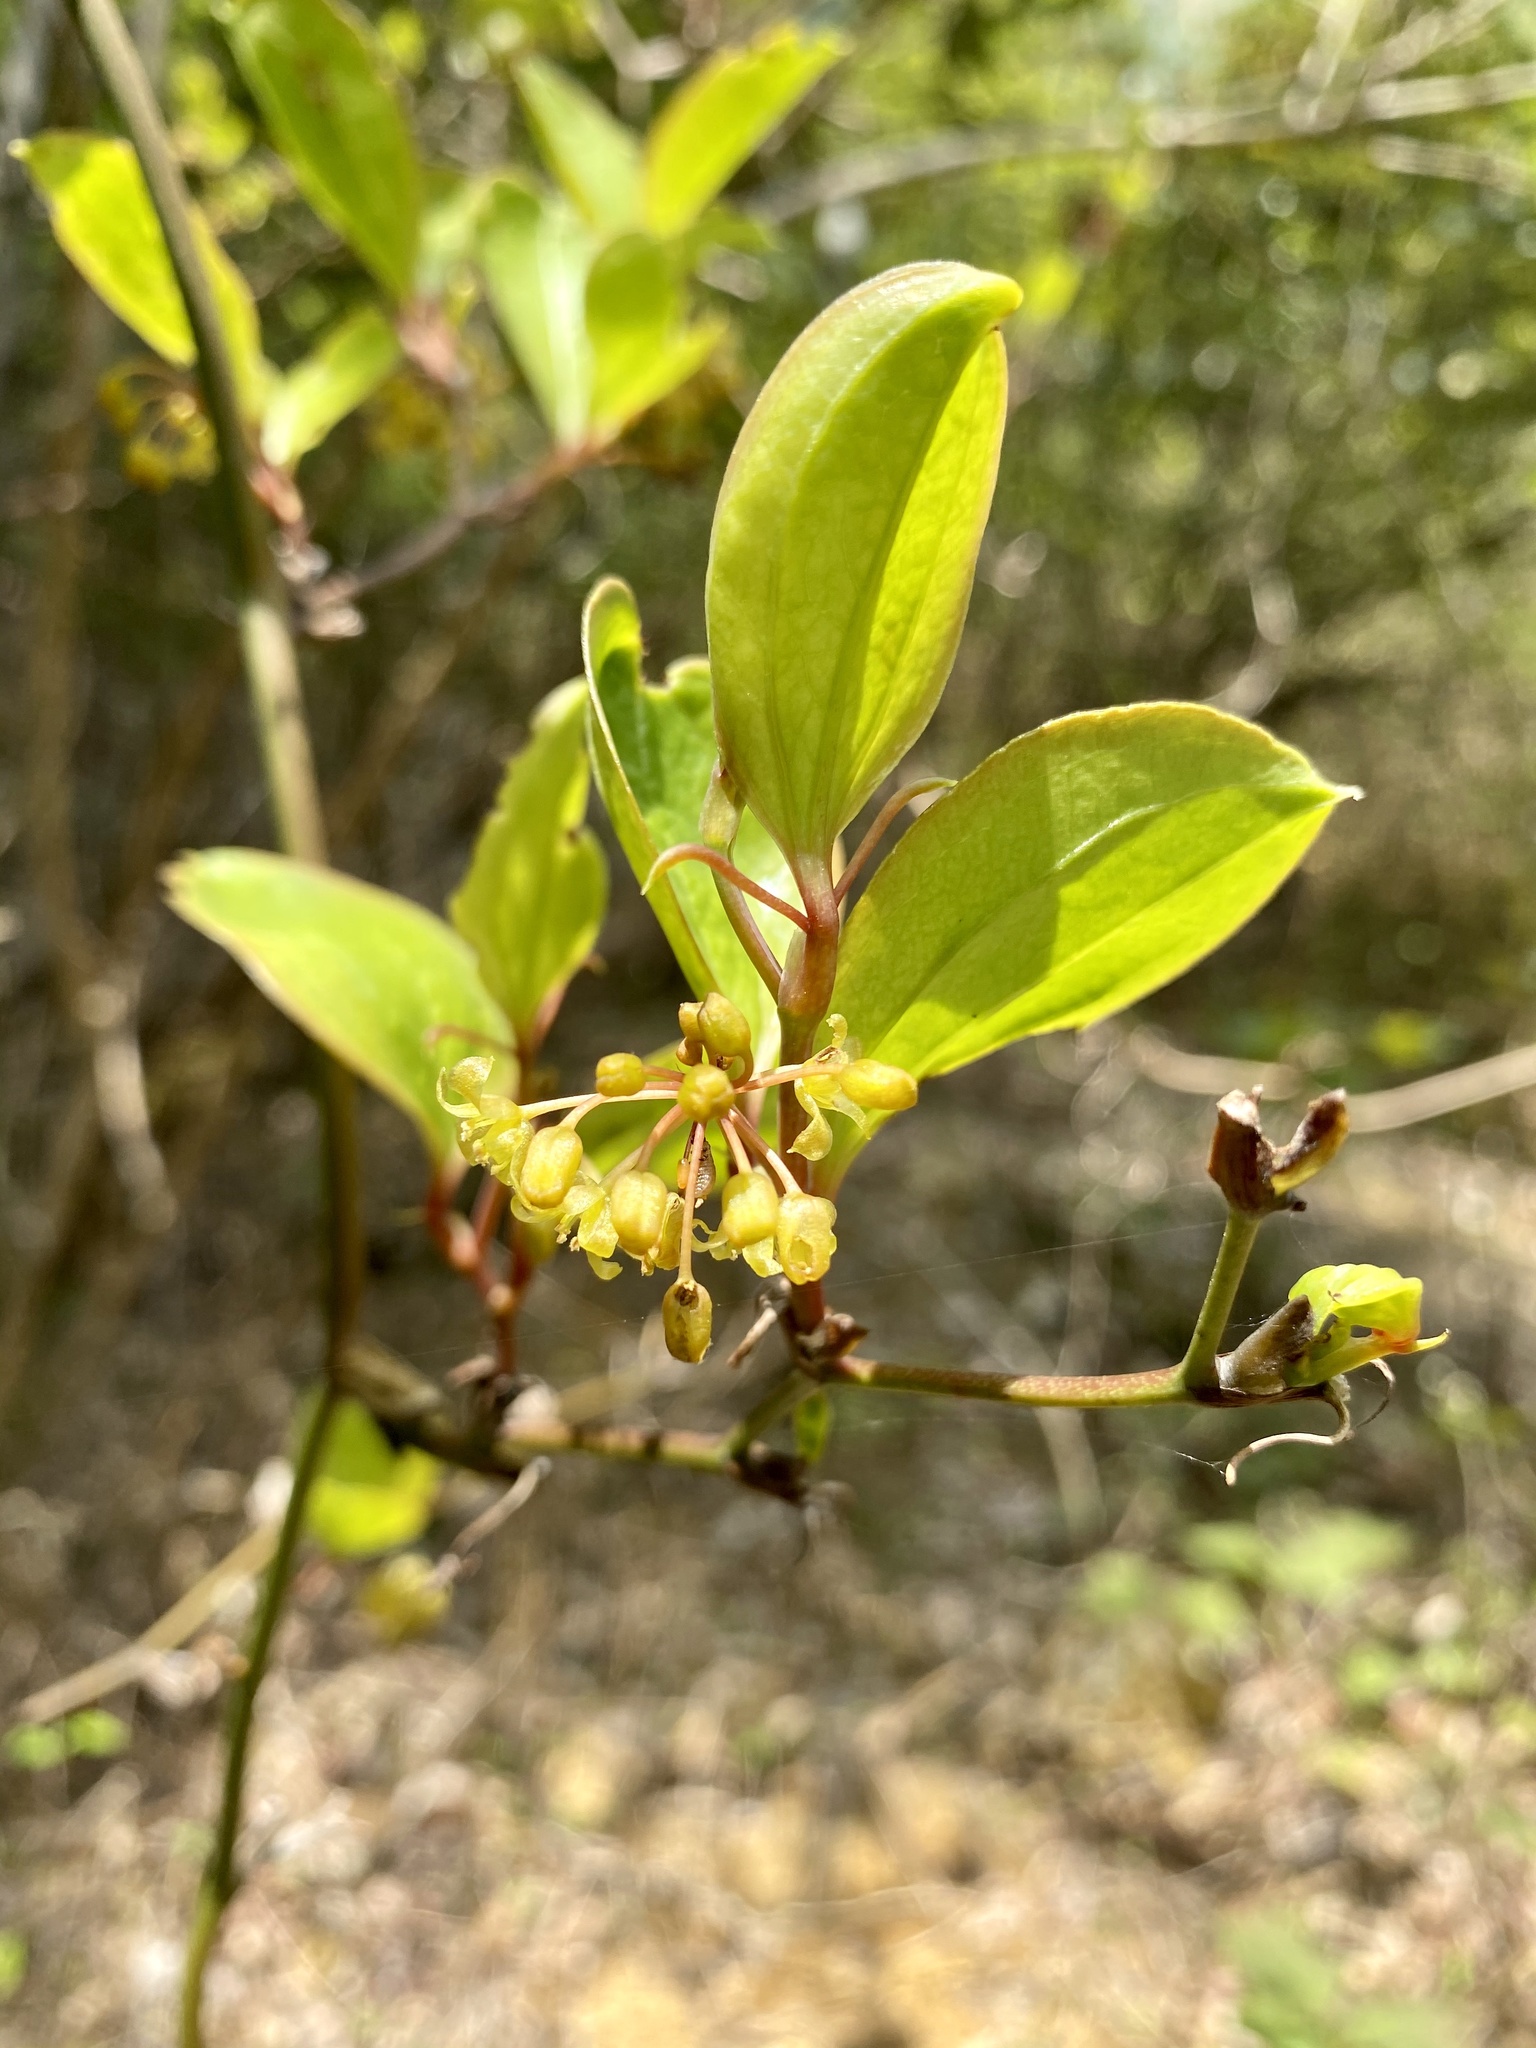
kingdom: Plantae
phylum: Tracheophyta
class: Liliopsida
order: Liliales
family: Smilacaceae
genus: Smilax
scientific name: Smilax china
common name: Chinaroot
